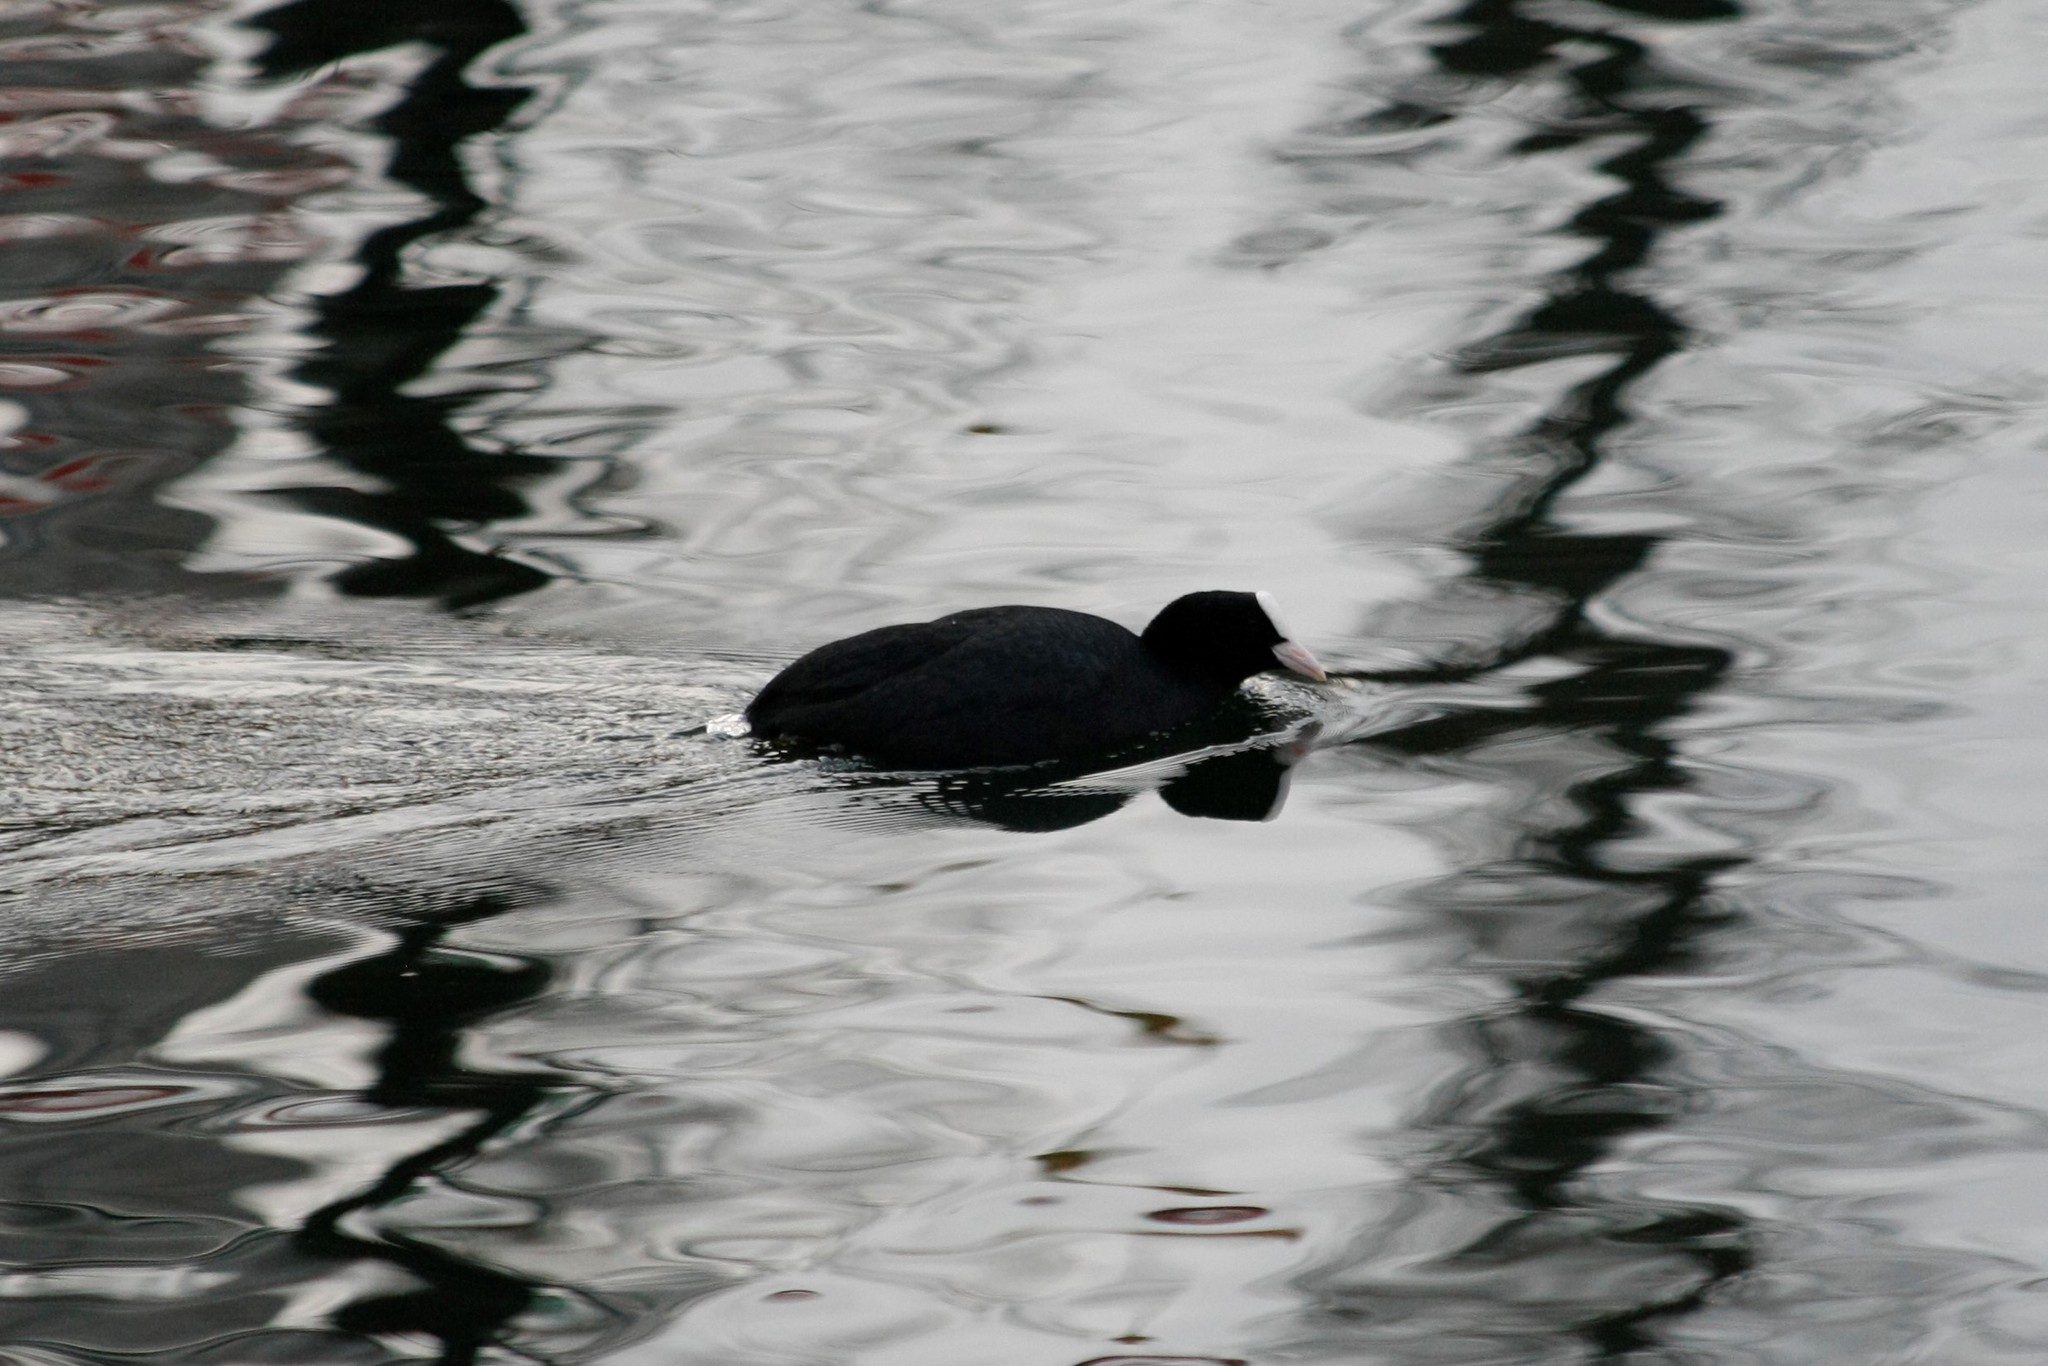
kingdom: Animalia
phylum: Chordata
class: Aves
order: Gruiformes
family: Rallidae
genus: Fulica
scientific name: Fulica atra
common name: Eurasian coot
